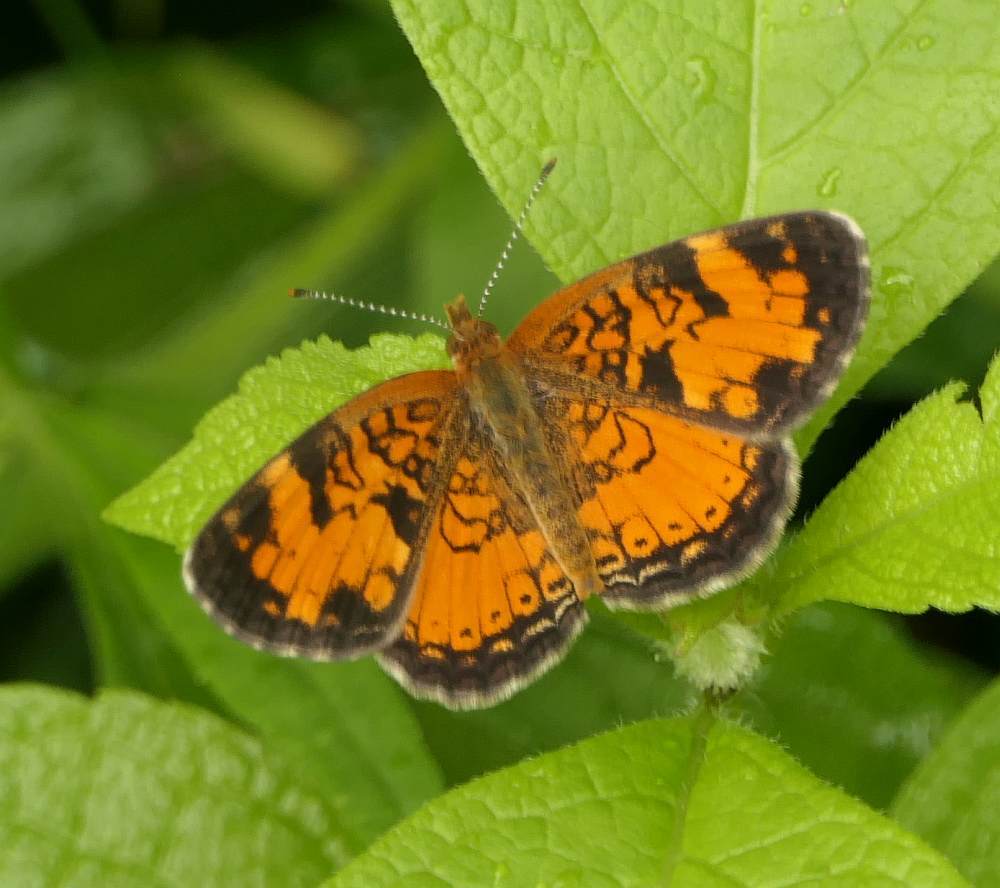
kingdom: Animalia
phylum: Arthropoda
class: Insecta
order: Lepidoptera
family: Nymphalidae
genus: Phyciodes
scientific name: Phyciodes tharos
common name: Pearl crescent
